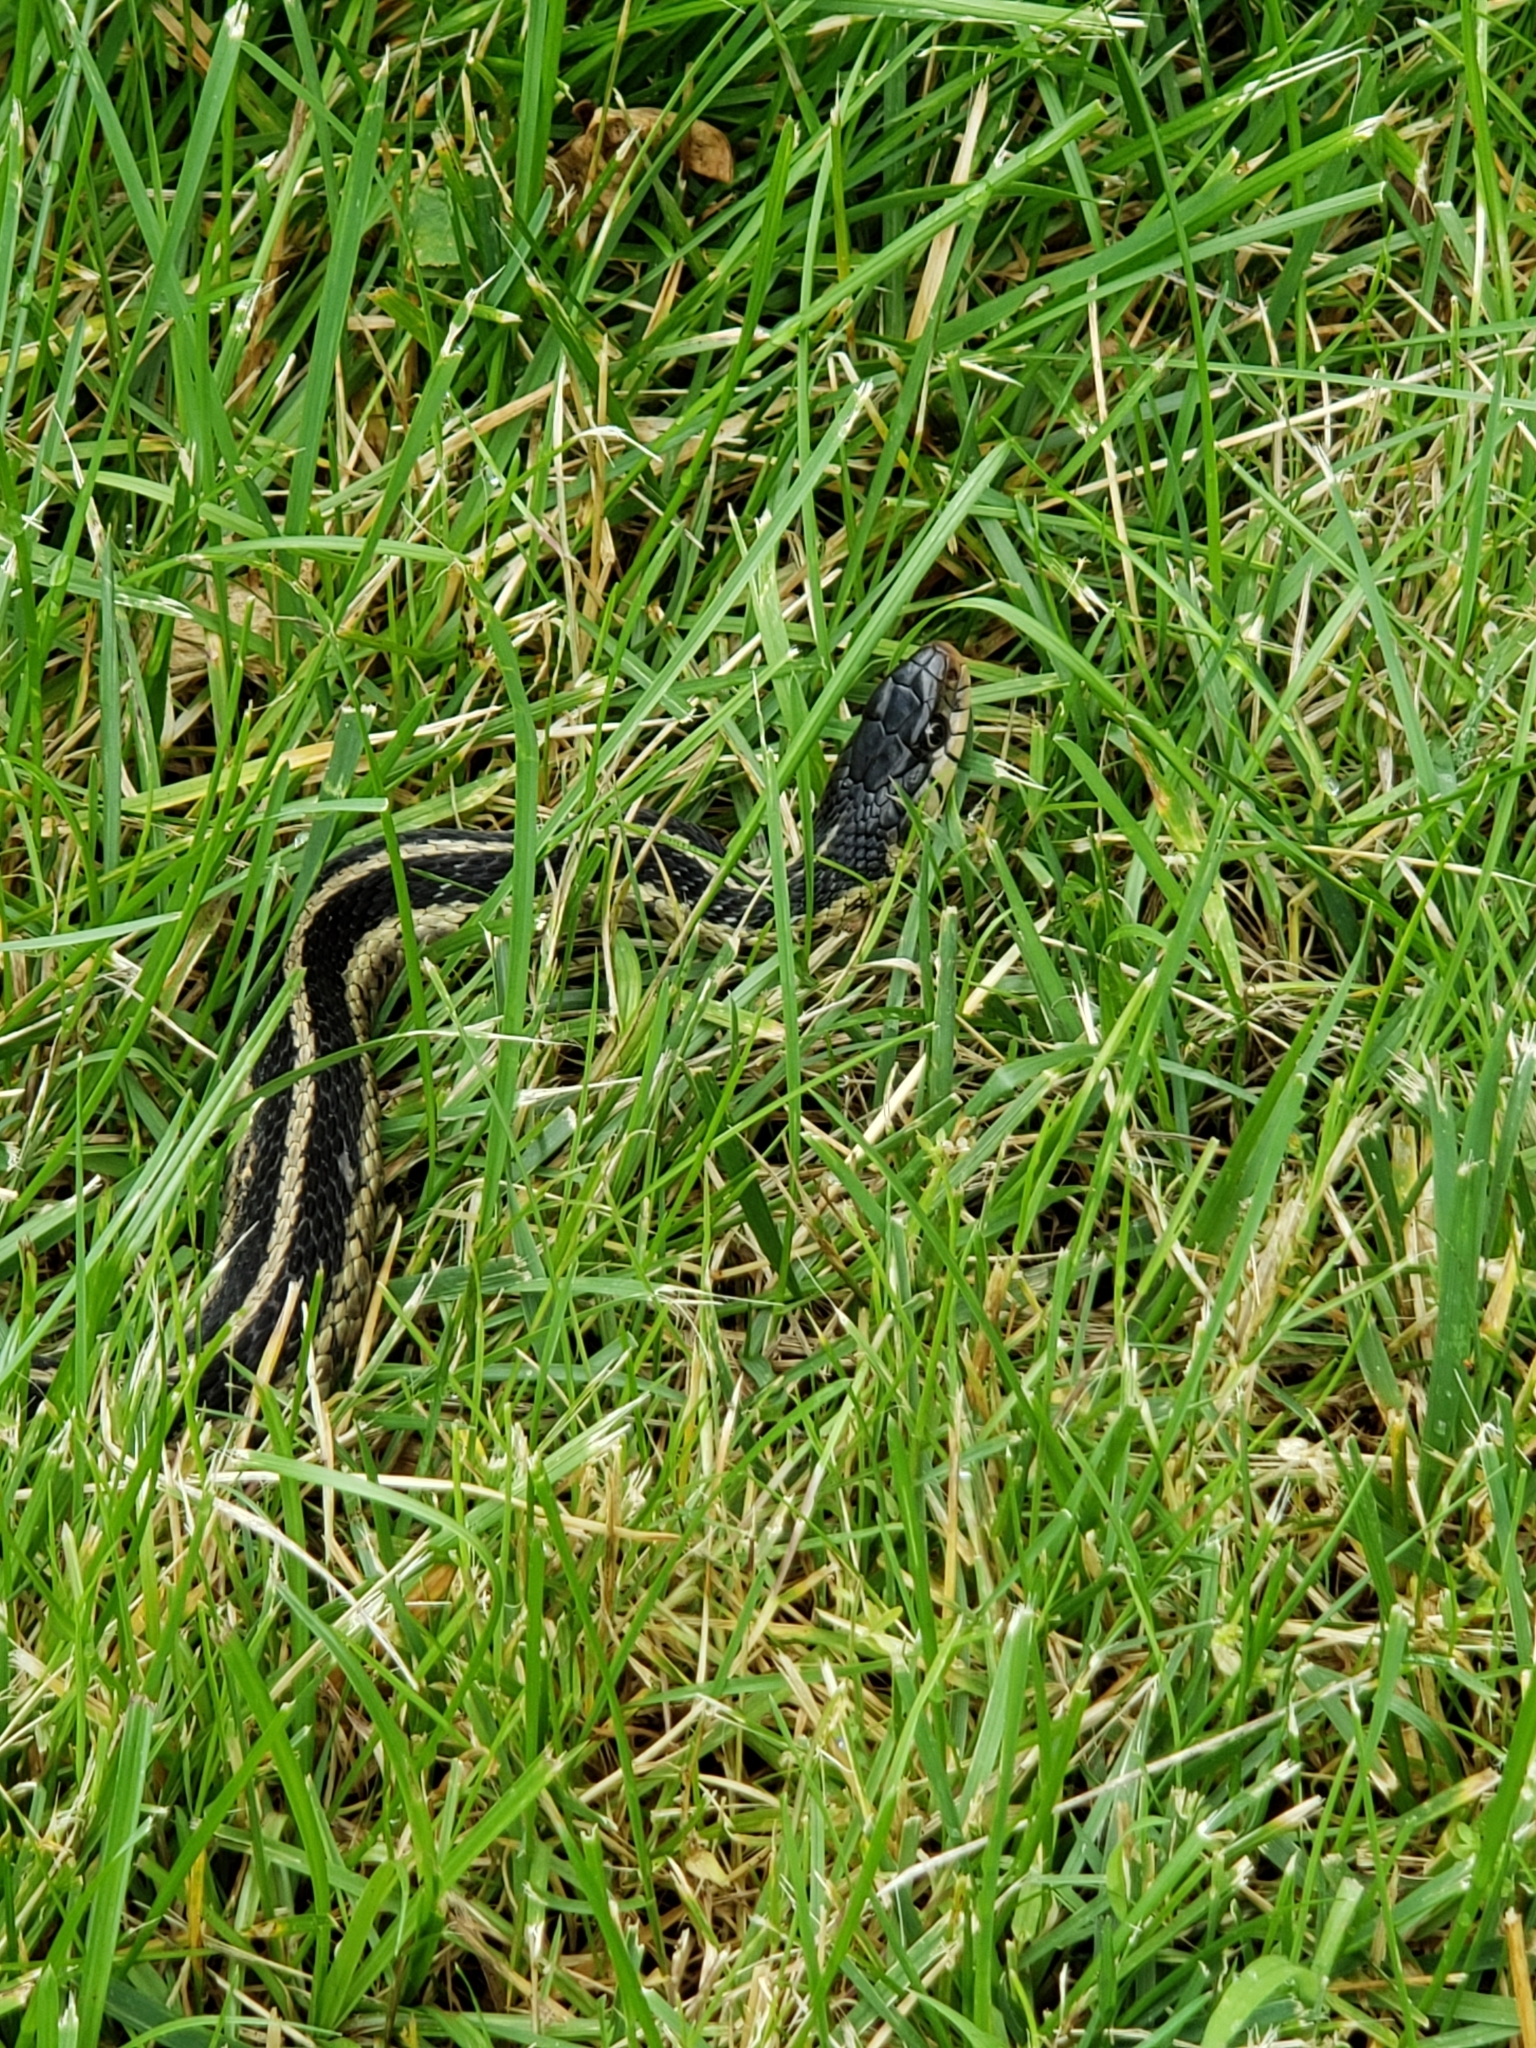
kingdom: Animalia
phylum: Chordata
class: Squamata
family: Colubridae
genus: Thamnophis
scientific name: Thamnophis sirtalis
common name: Common garter snake
